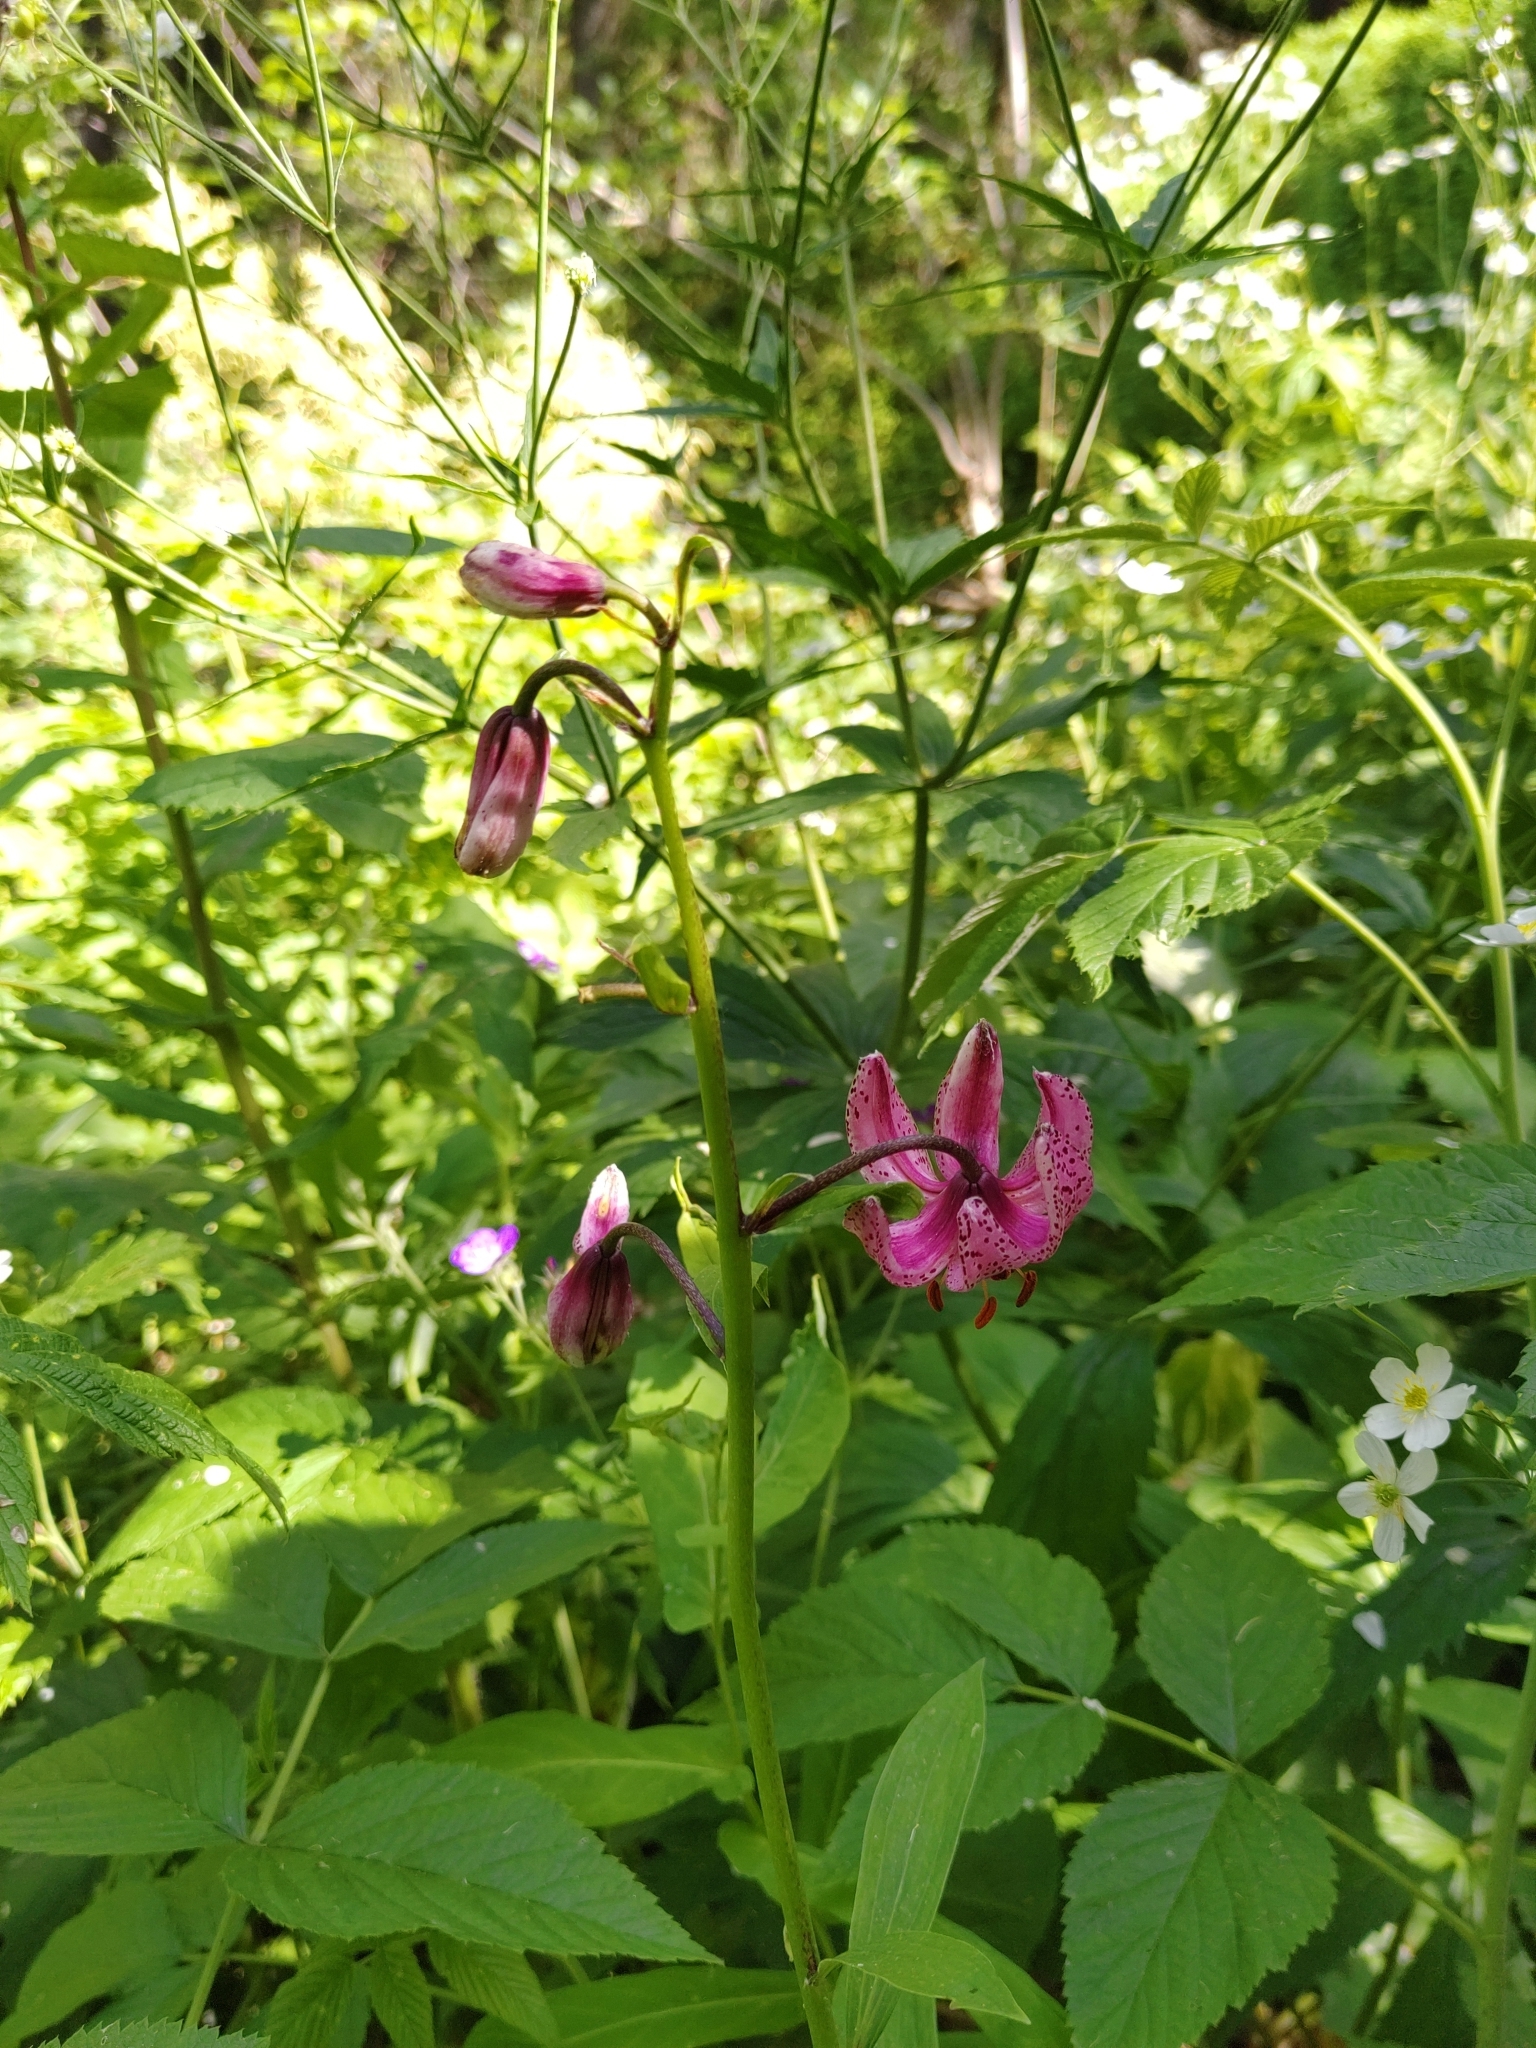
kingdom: Plantae
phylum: Tracheophyta
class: Liliopsida
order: Liliales
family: Liliaceae
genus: Lilium
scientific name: Lilium martagon
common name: Martagon lily
